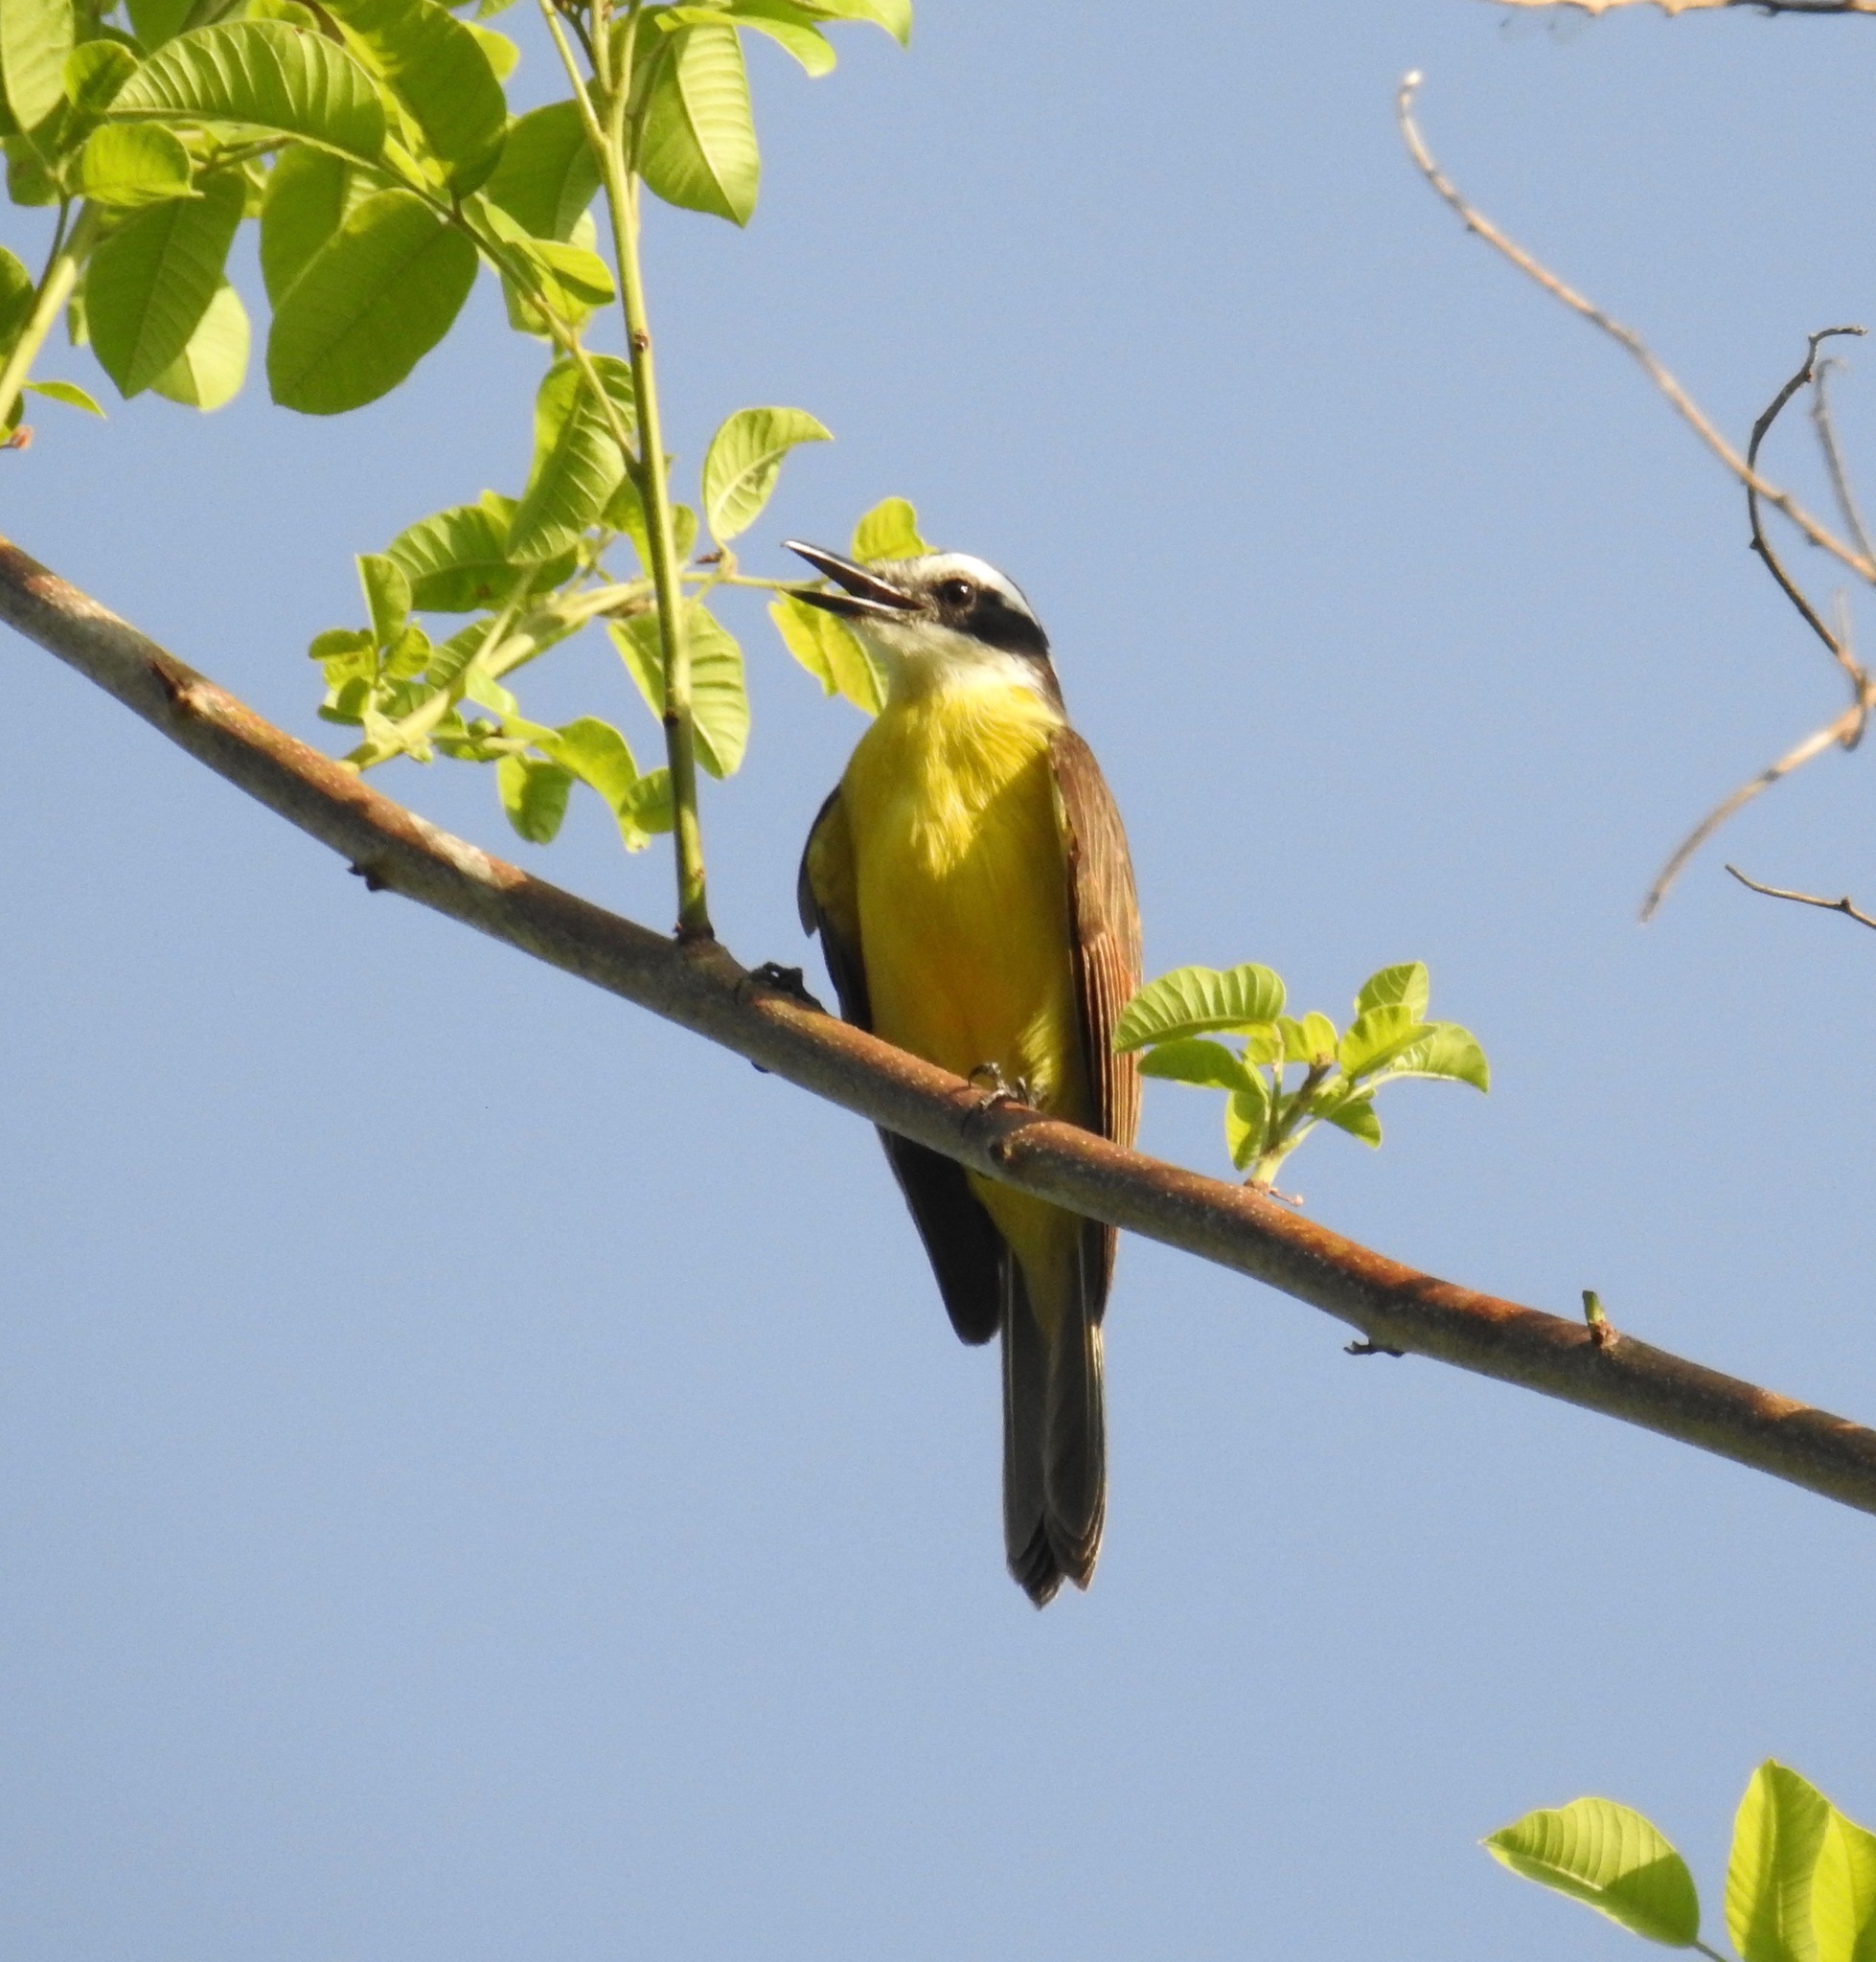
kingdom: Animalia
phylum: Chordata
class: Aves
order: Passeriformes
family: Tyrannidae
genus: Pitangus
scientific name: Pitangus lictor
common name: Lesser kiskadee
